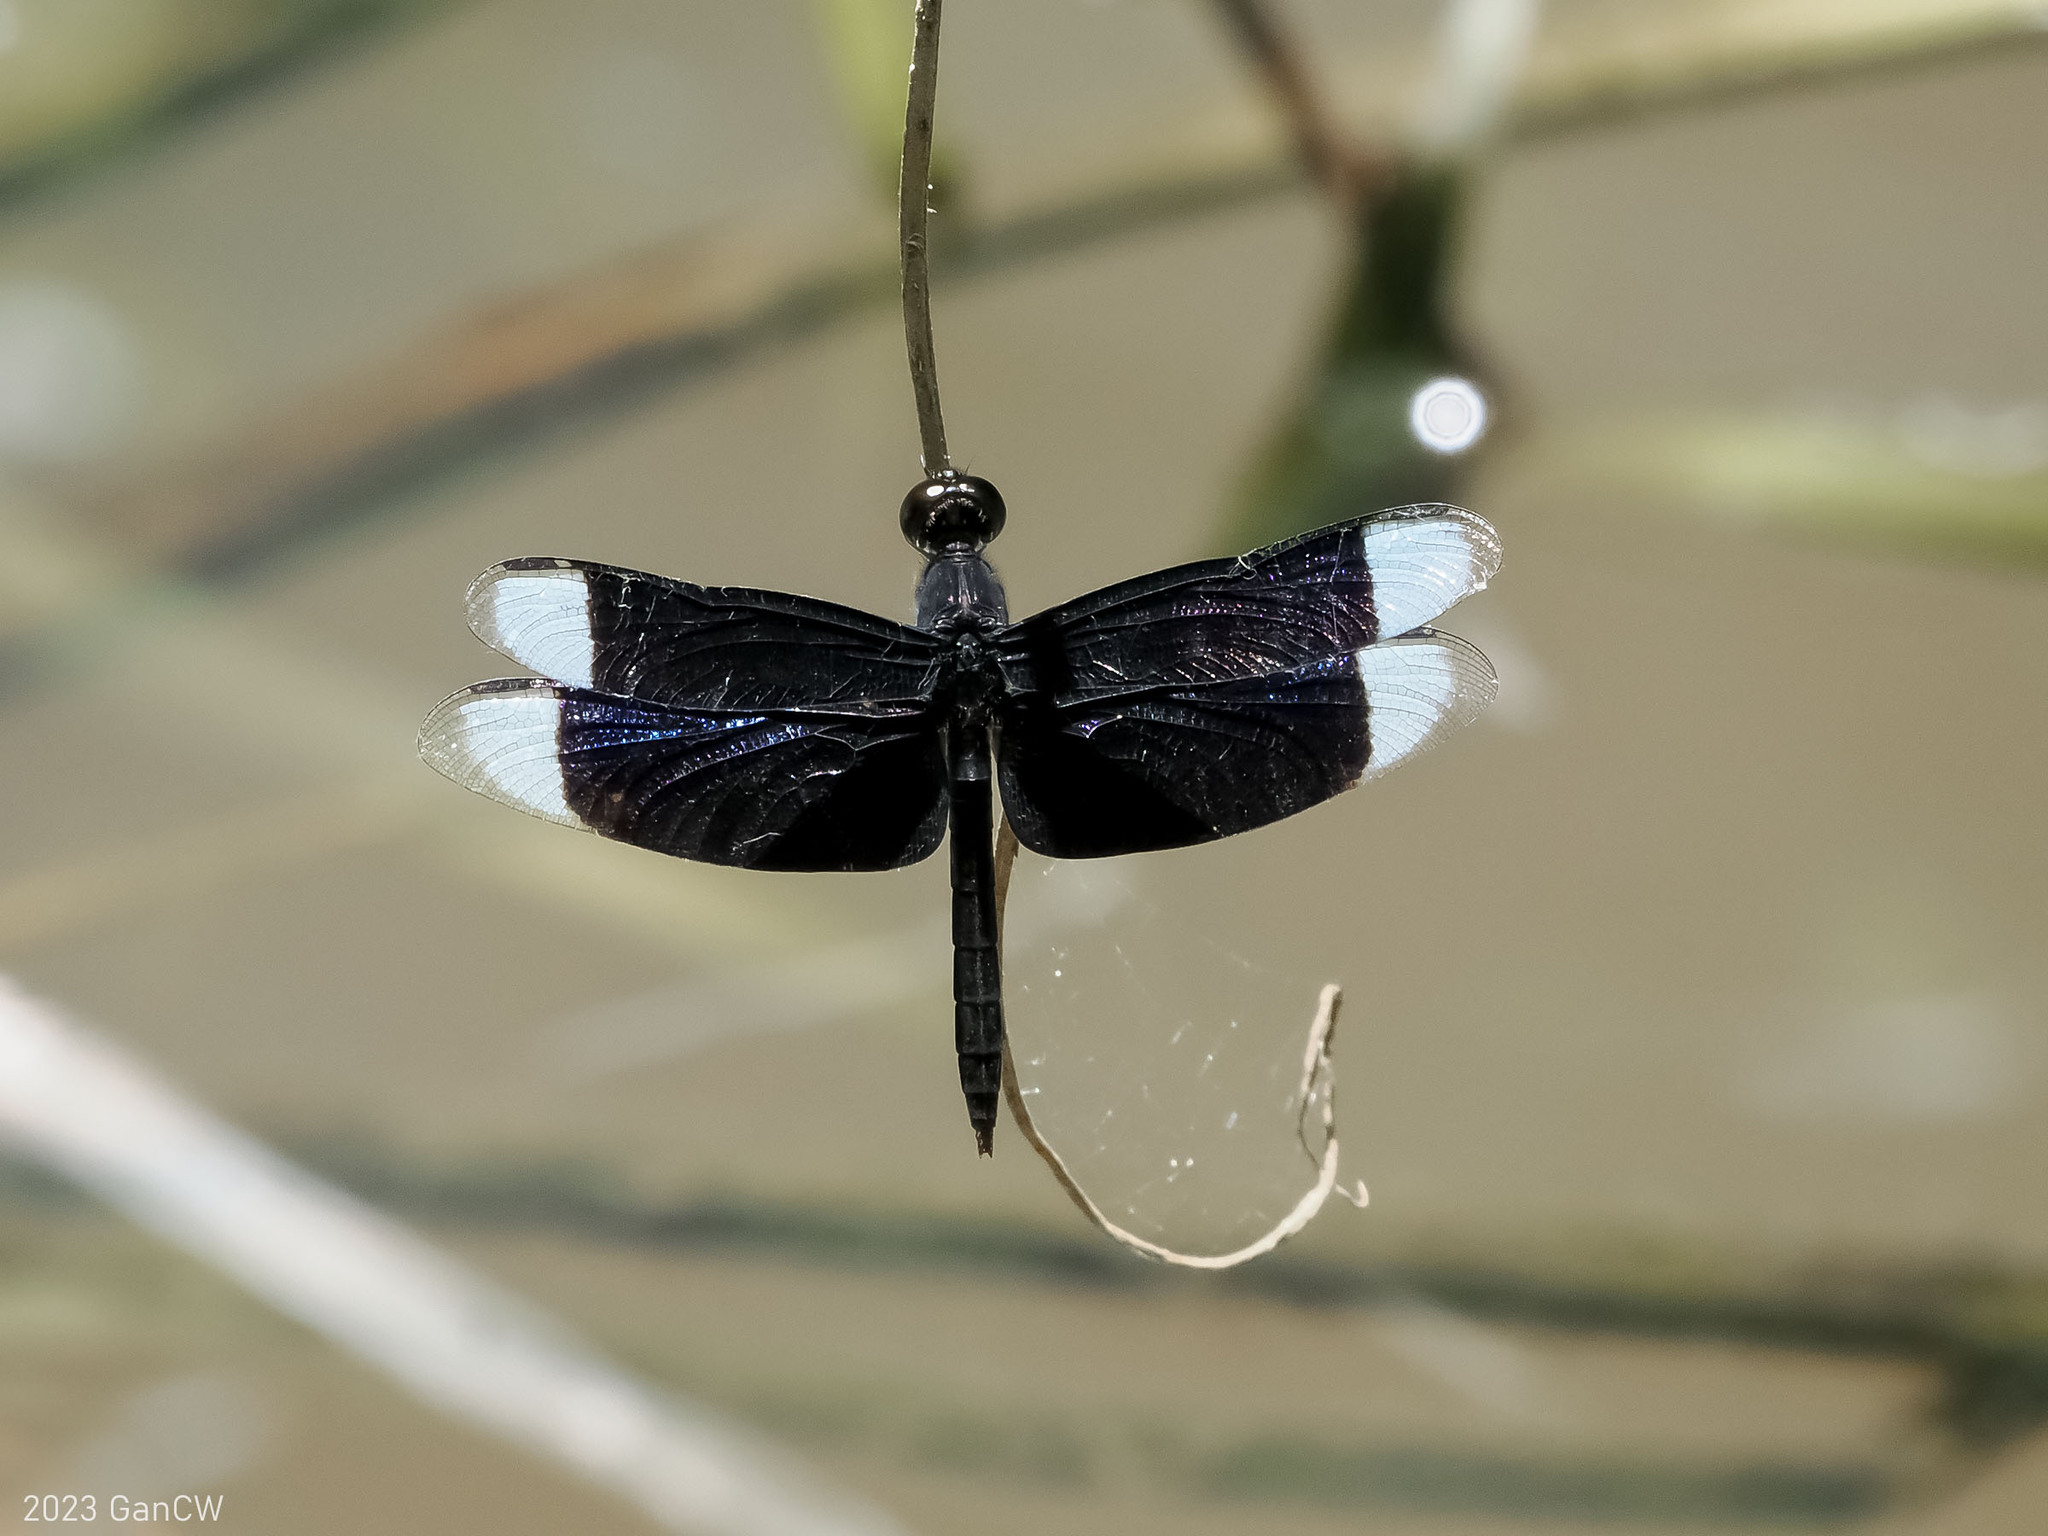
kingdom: Animalia
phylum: Arthropoda
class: Insecta
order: Odonata
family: Libellulidae
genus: Neurothemis
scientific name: Neurothemis decora
